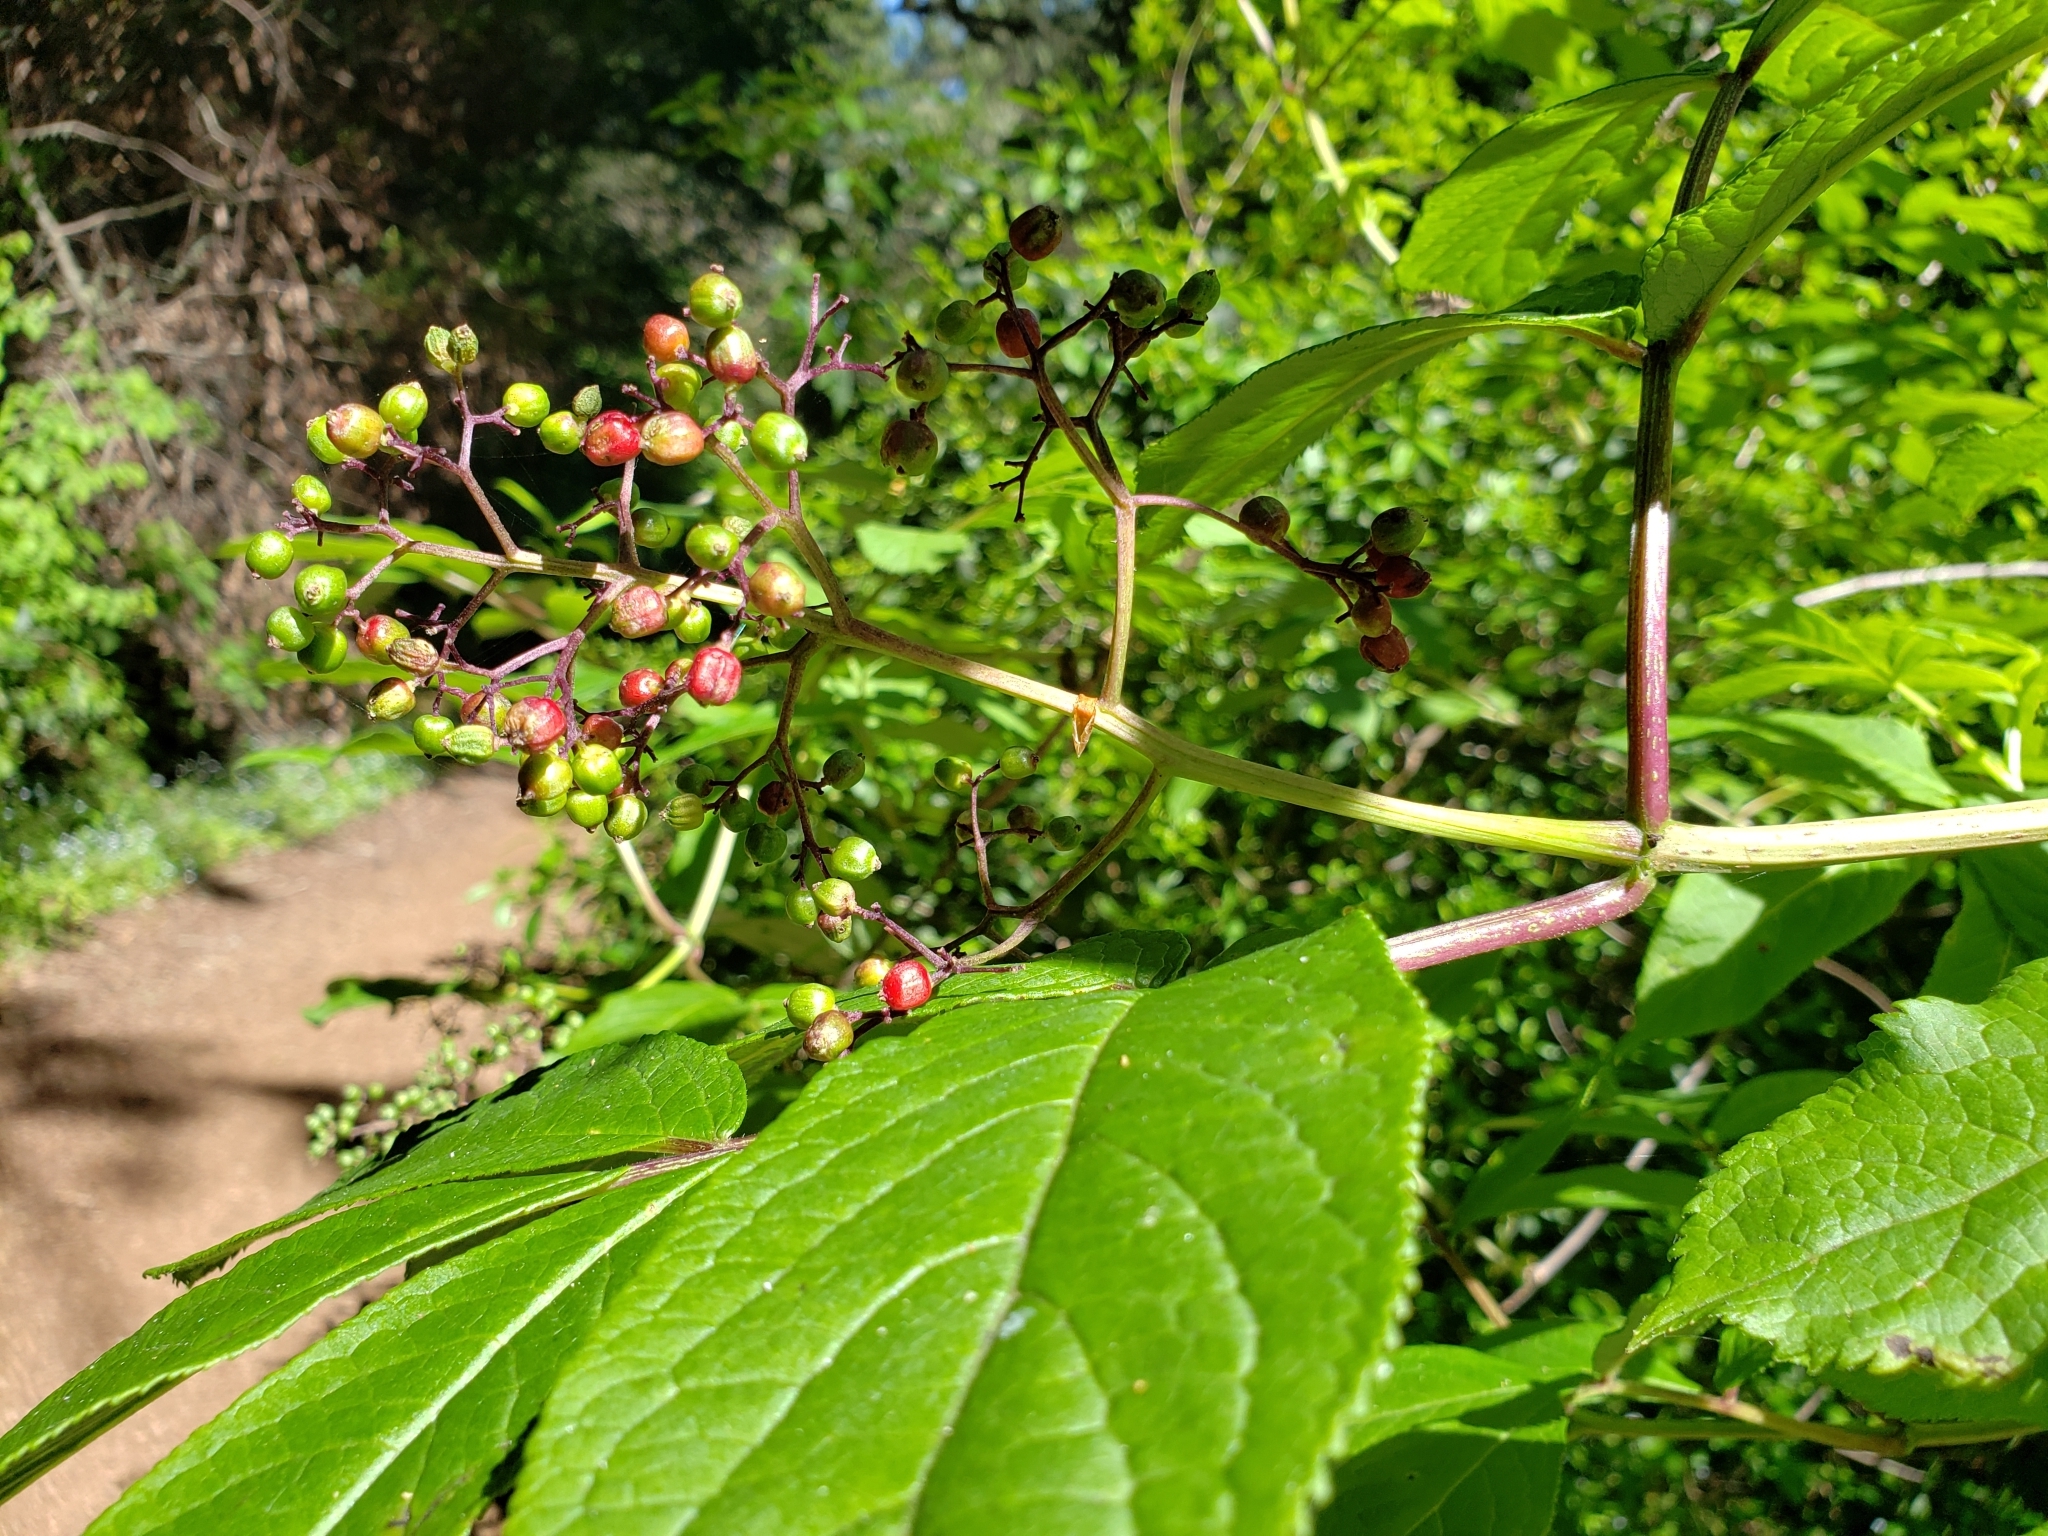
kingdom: Plantae
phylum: Tracheophyta
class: Magnoliopsida
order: Dipsacales
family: Viburnaceae
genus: Sambucus
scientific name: Sambucus racemosa
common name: Red-berried elder
